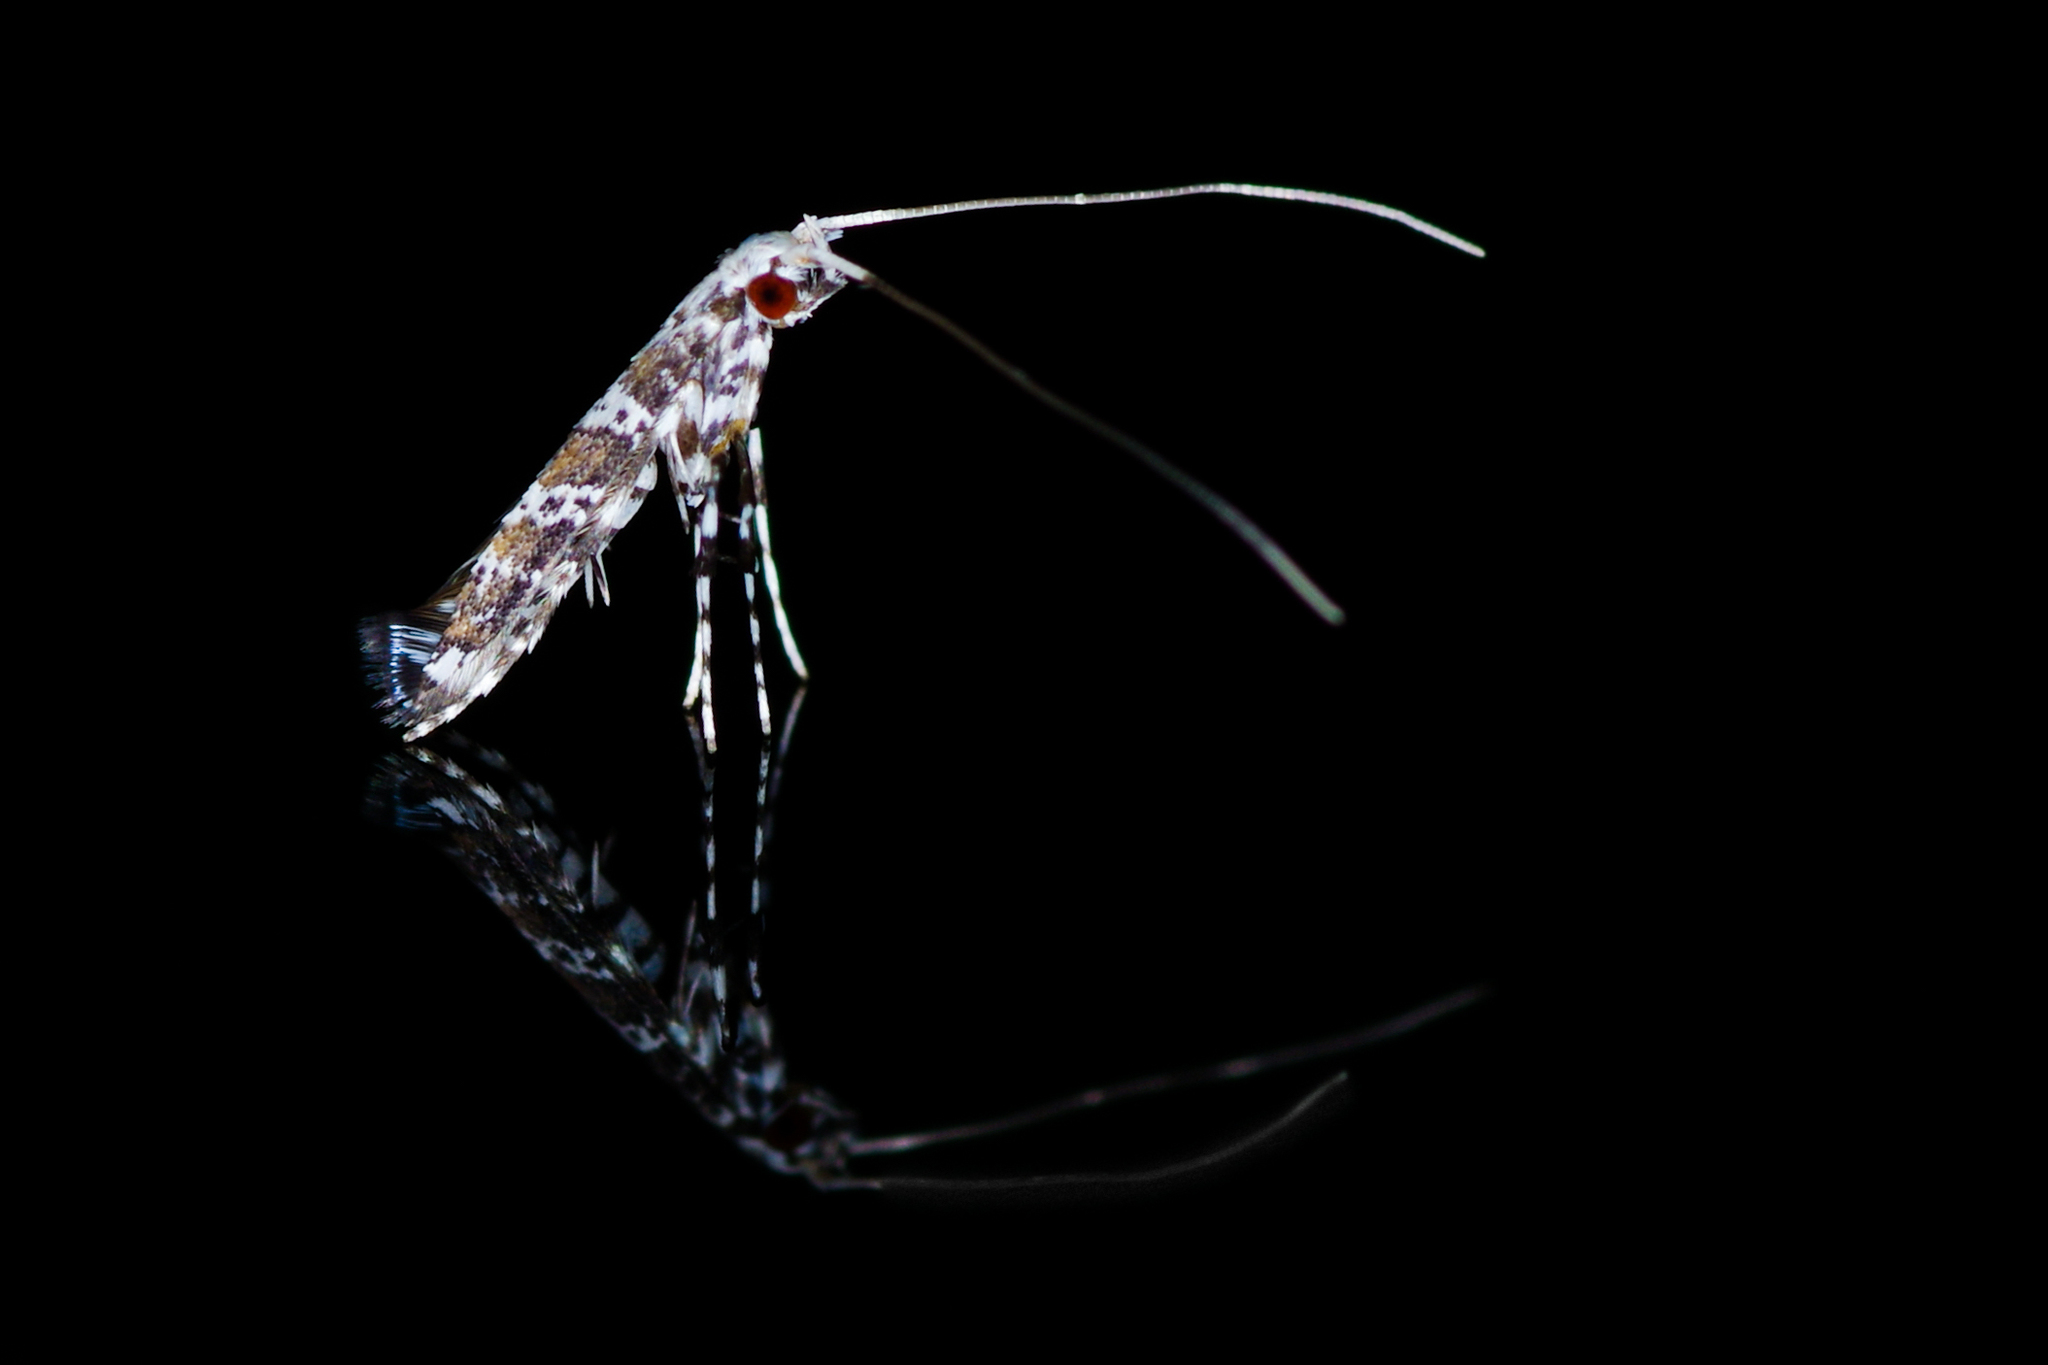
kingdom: Animalia
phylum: Arthropoda
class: Insecta
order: Lepidoptera
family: Gracillariidae
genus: Gibbovalva
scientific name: Gibbovalva quadrifasciata
